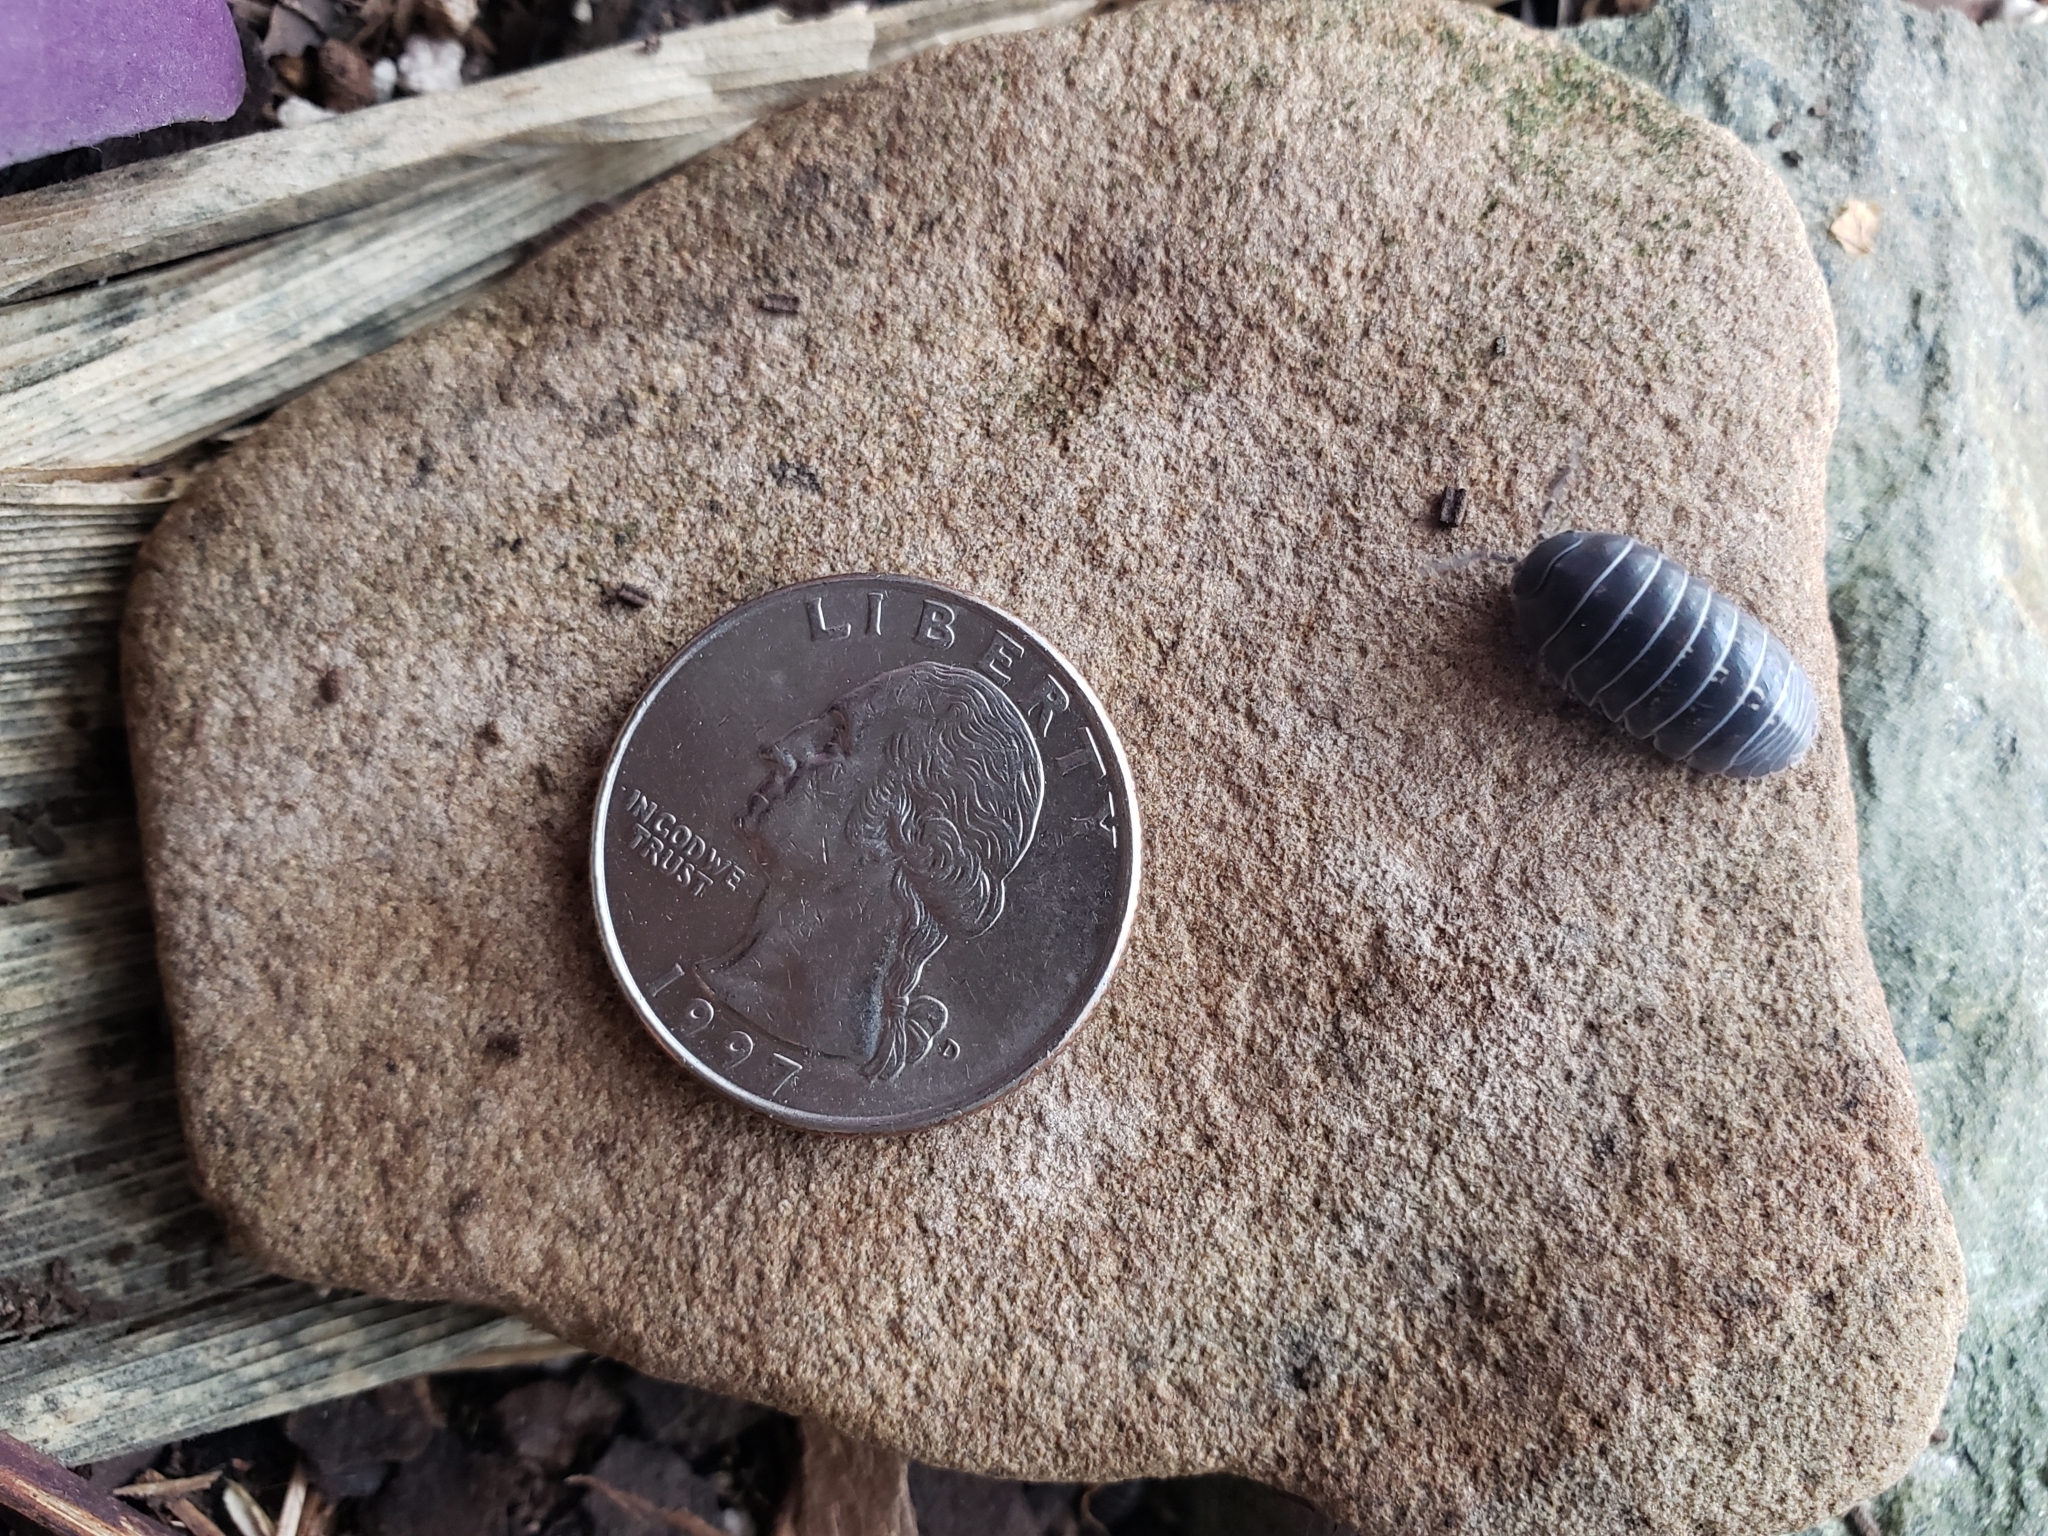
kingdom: Animalia
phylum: Arthropoda
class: Malacostraca
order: Isopoda
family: Armadillidiidae
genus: Armadillidium
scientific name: Armadillidium vulgare
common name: Common pill woodlouse
